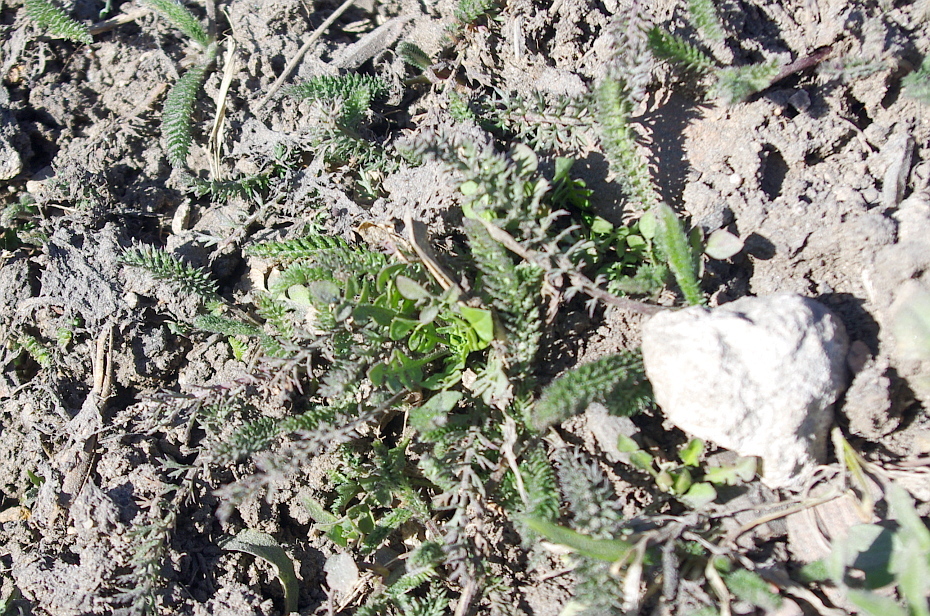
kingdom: Plantae
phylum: Tracheophyta
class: Magnoliopsida
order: Asterales
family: Asteraceae
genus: Achillea
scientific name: Achillea millefolium
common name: Yarrow
